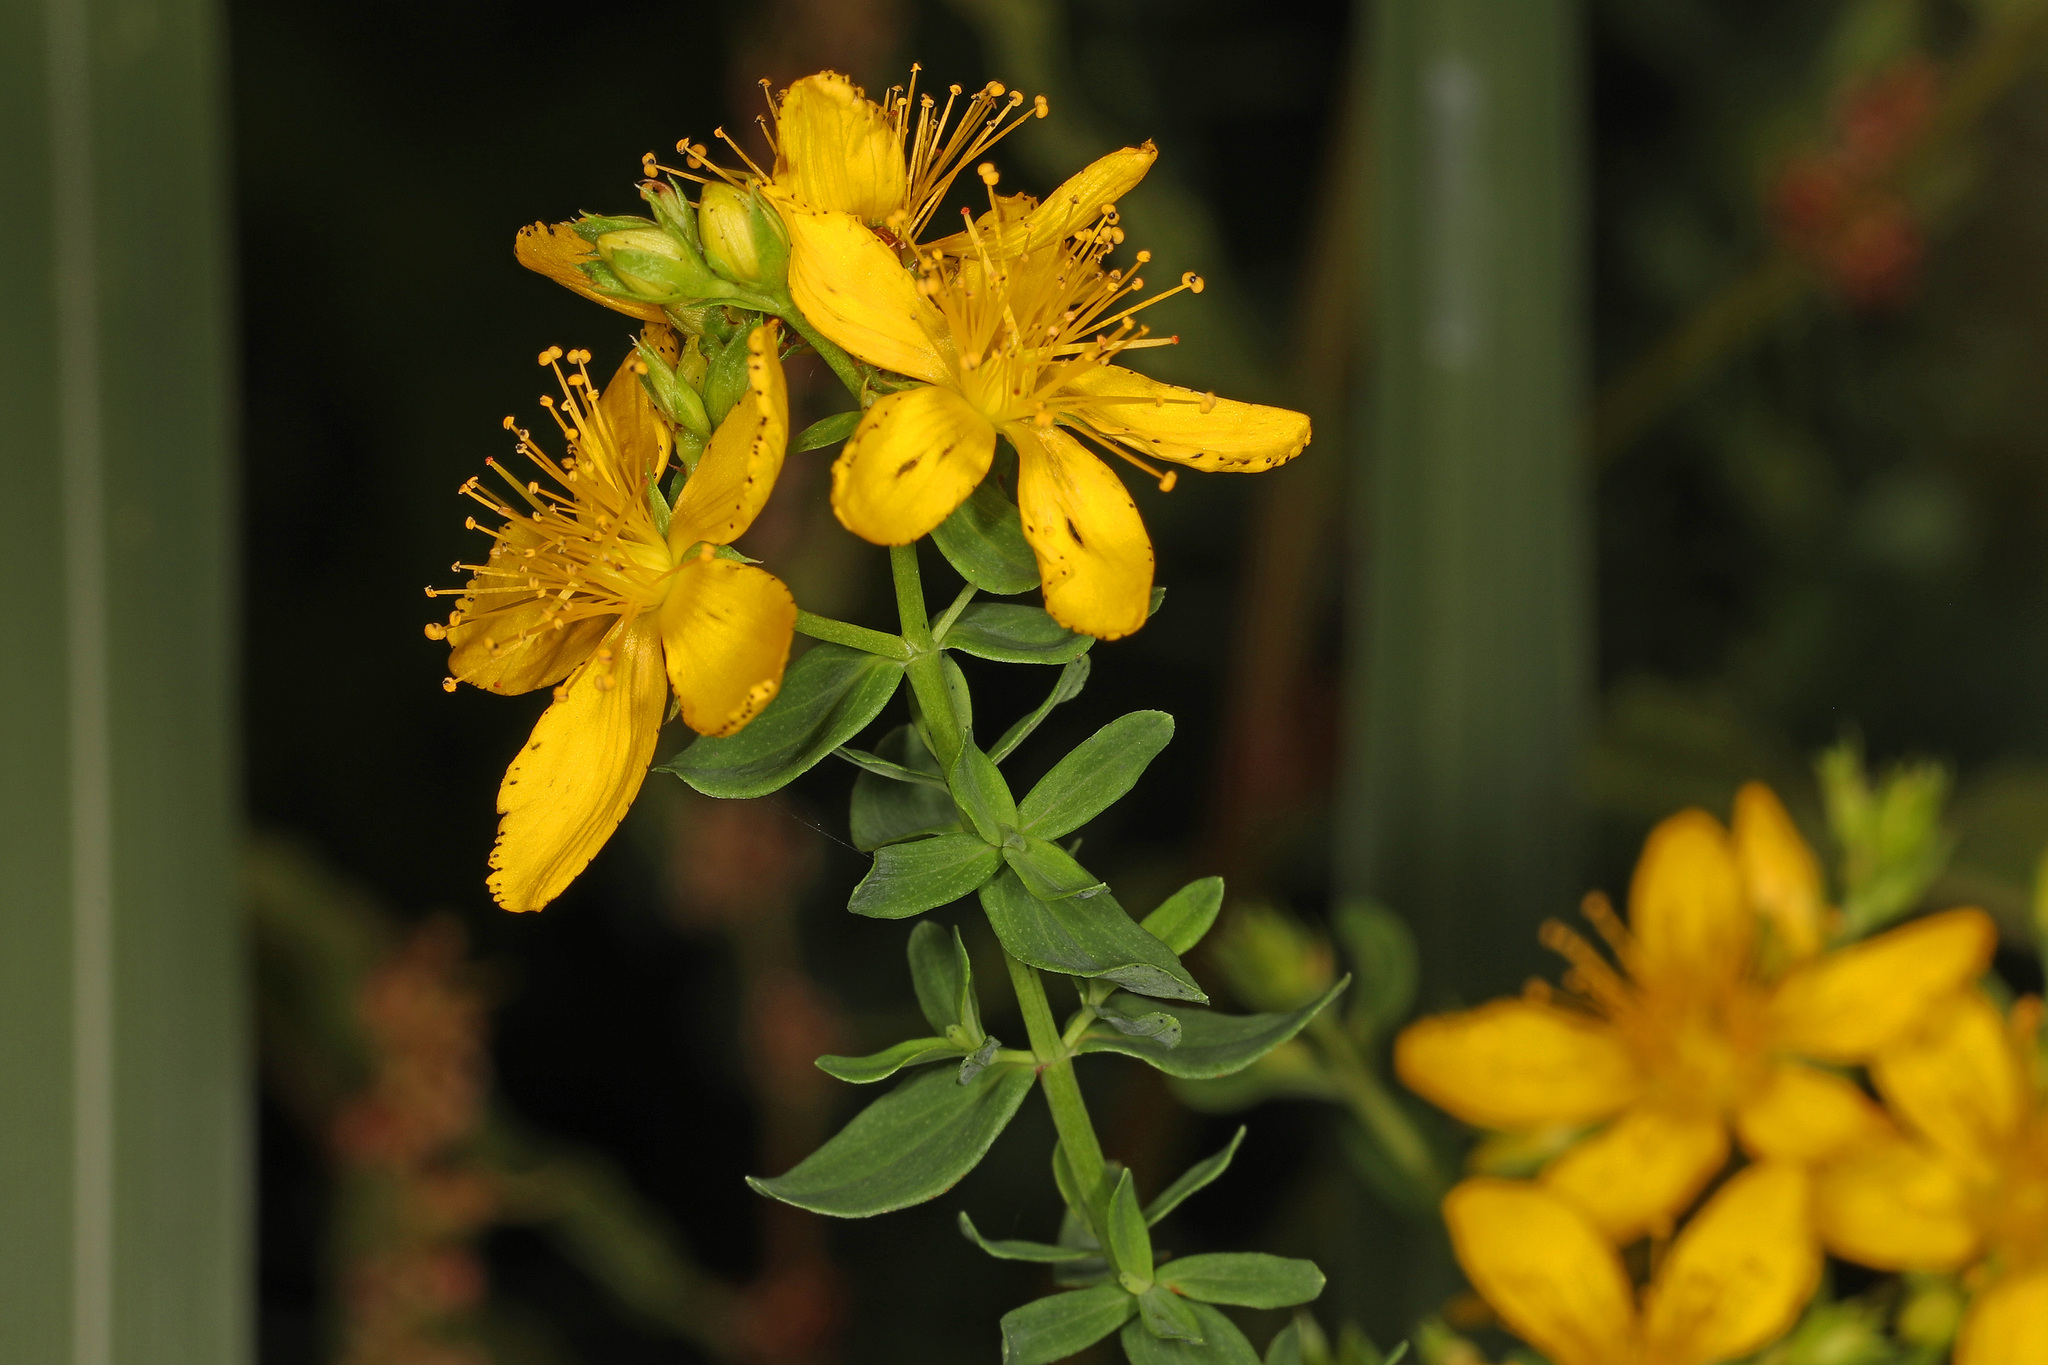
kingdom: Plantae
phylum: Tracheophyta
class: Magnoliopsida
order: Malpighiales
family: Hypericaceae
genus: Hypericum
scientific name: Hypericum perforatum
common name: Common st. johnswort
